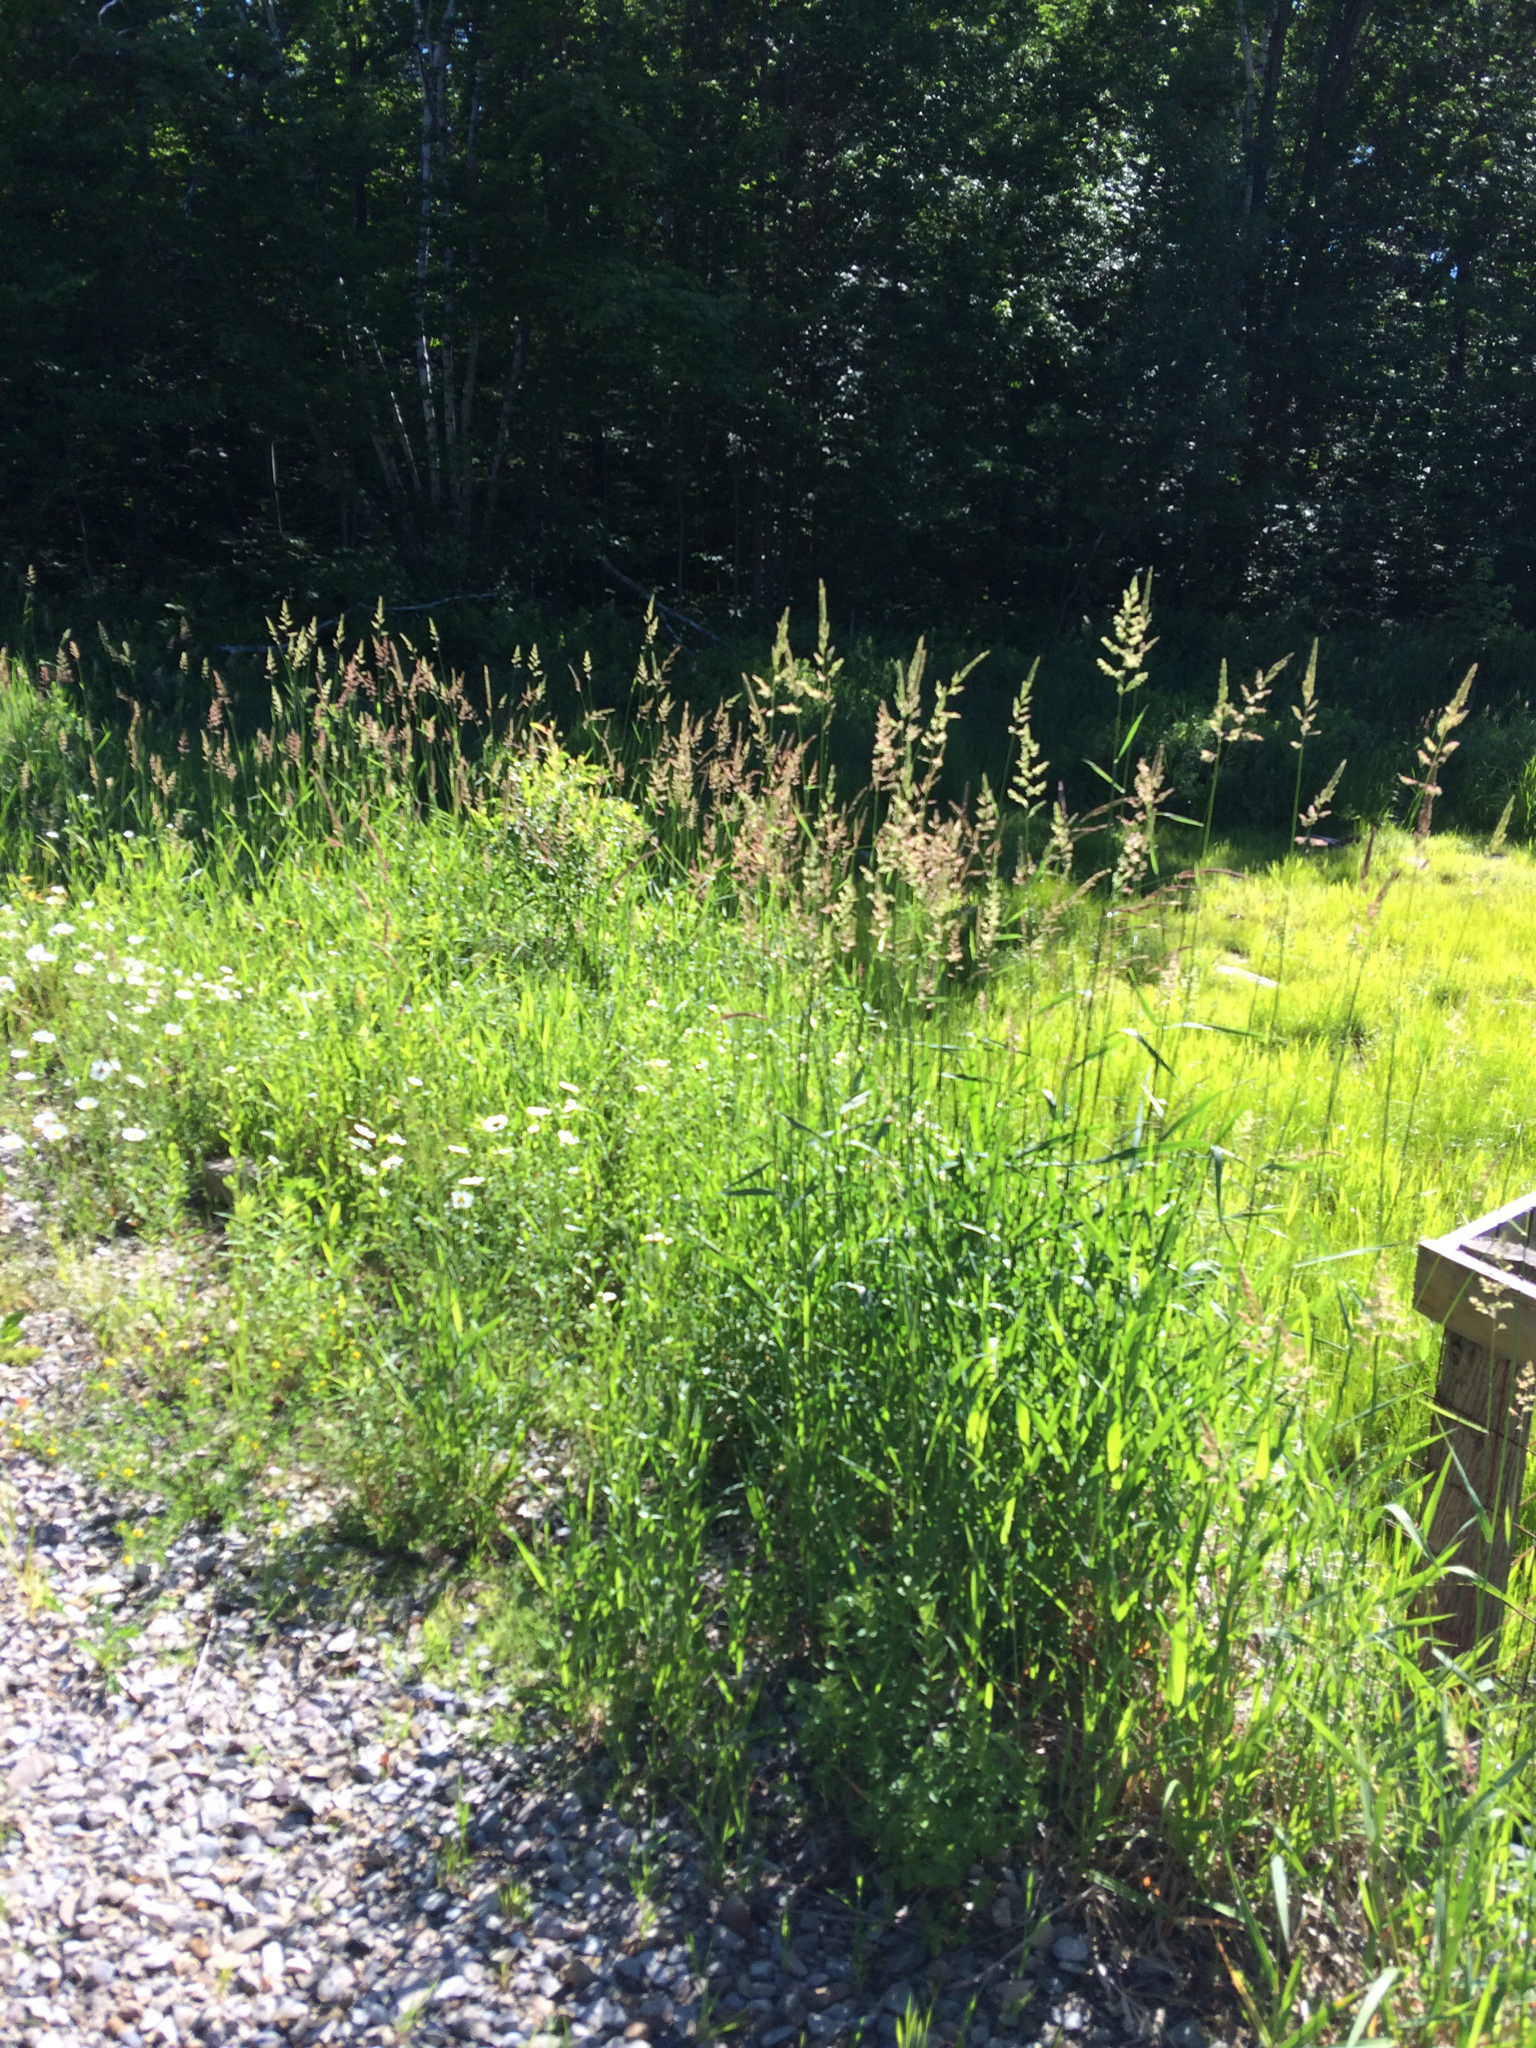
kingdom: Plantae
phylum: Tracheophyta
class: Liliopsida
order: Poales
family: Poaceae
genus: Phalaris
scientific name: Phalaris arundinacea
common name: Reed canary-grass
